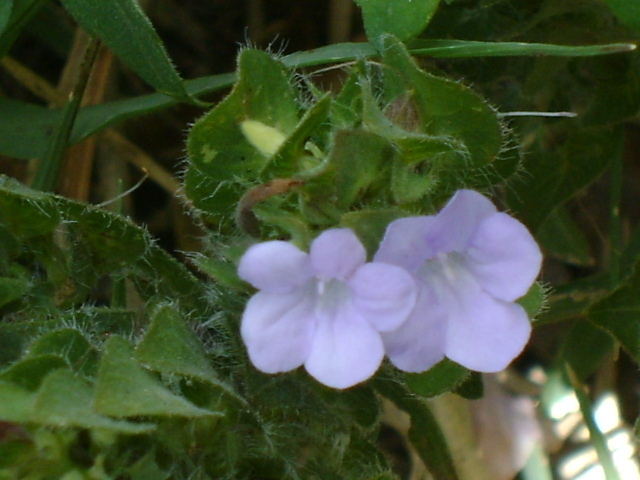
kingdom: Plantae
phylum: Tracheophyta
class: Magnoliopsida
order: Lamiales
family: Acanthaceae
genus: Ruellia
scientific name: Ruellia blechum
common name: Browne's blechum
